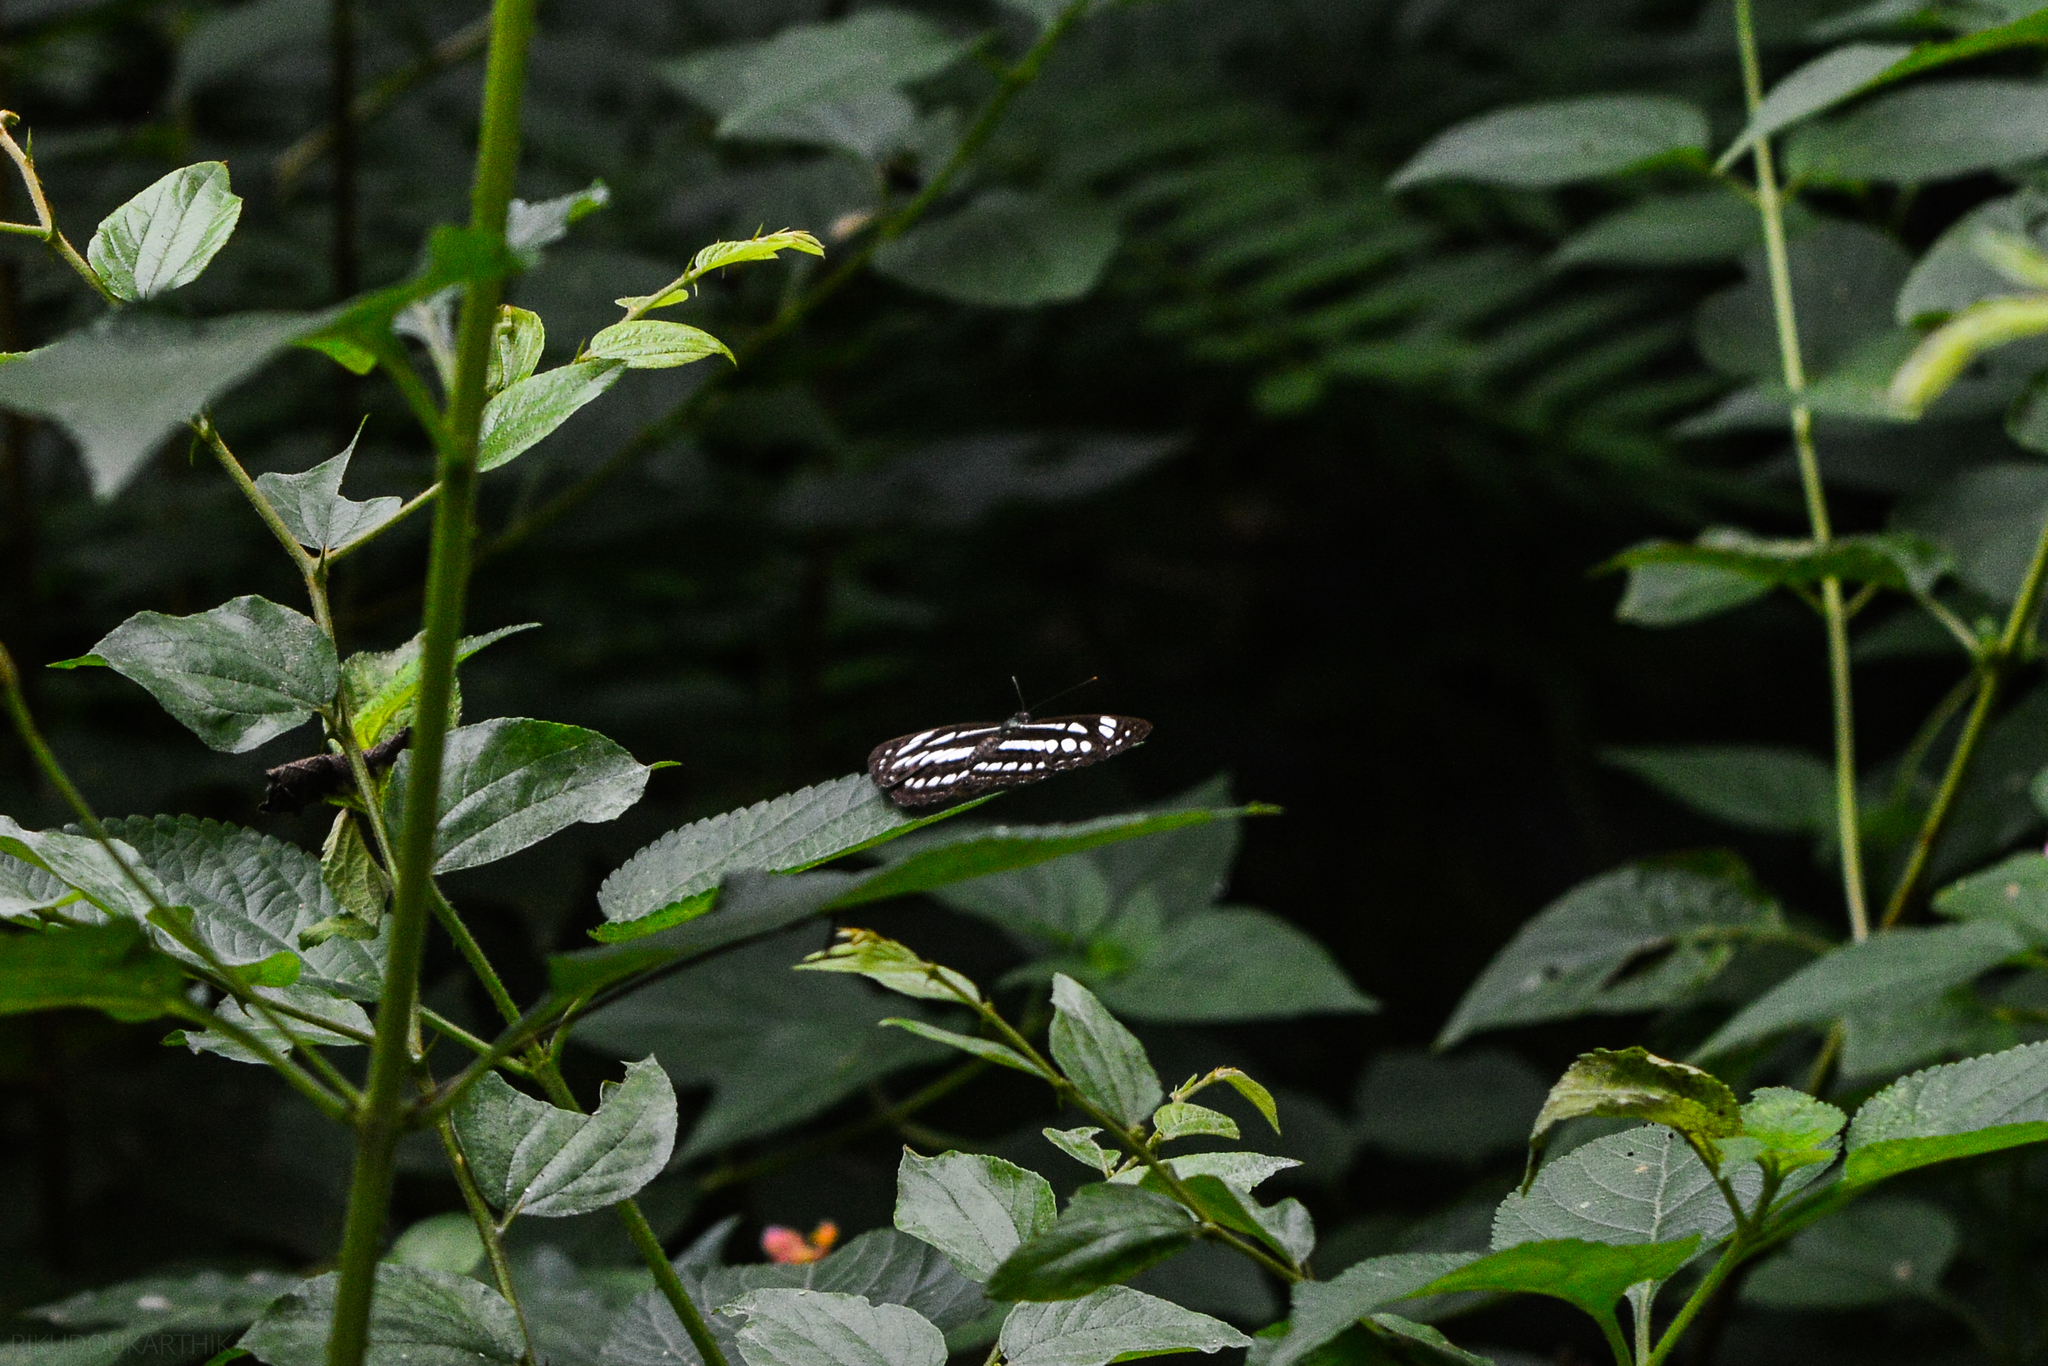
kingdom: Animalia
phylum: Arthropoda
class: Insecta
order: Lepidoptera
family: Nymphalidae
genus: Neptis
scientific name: Neptis hylas
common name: Common sailer
